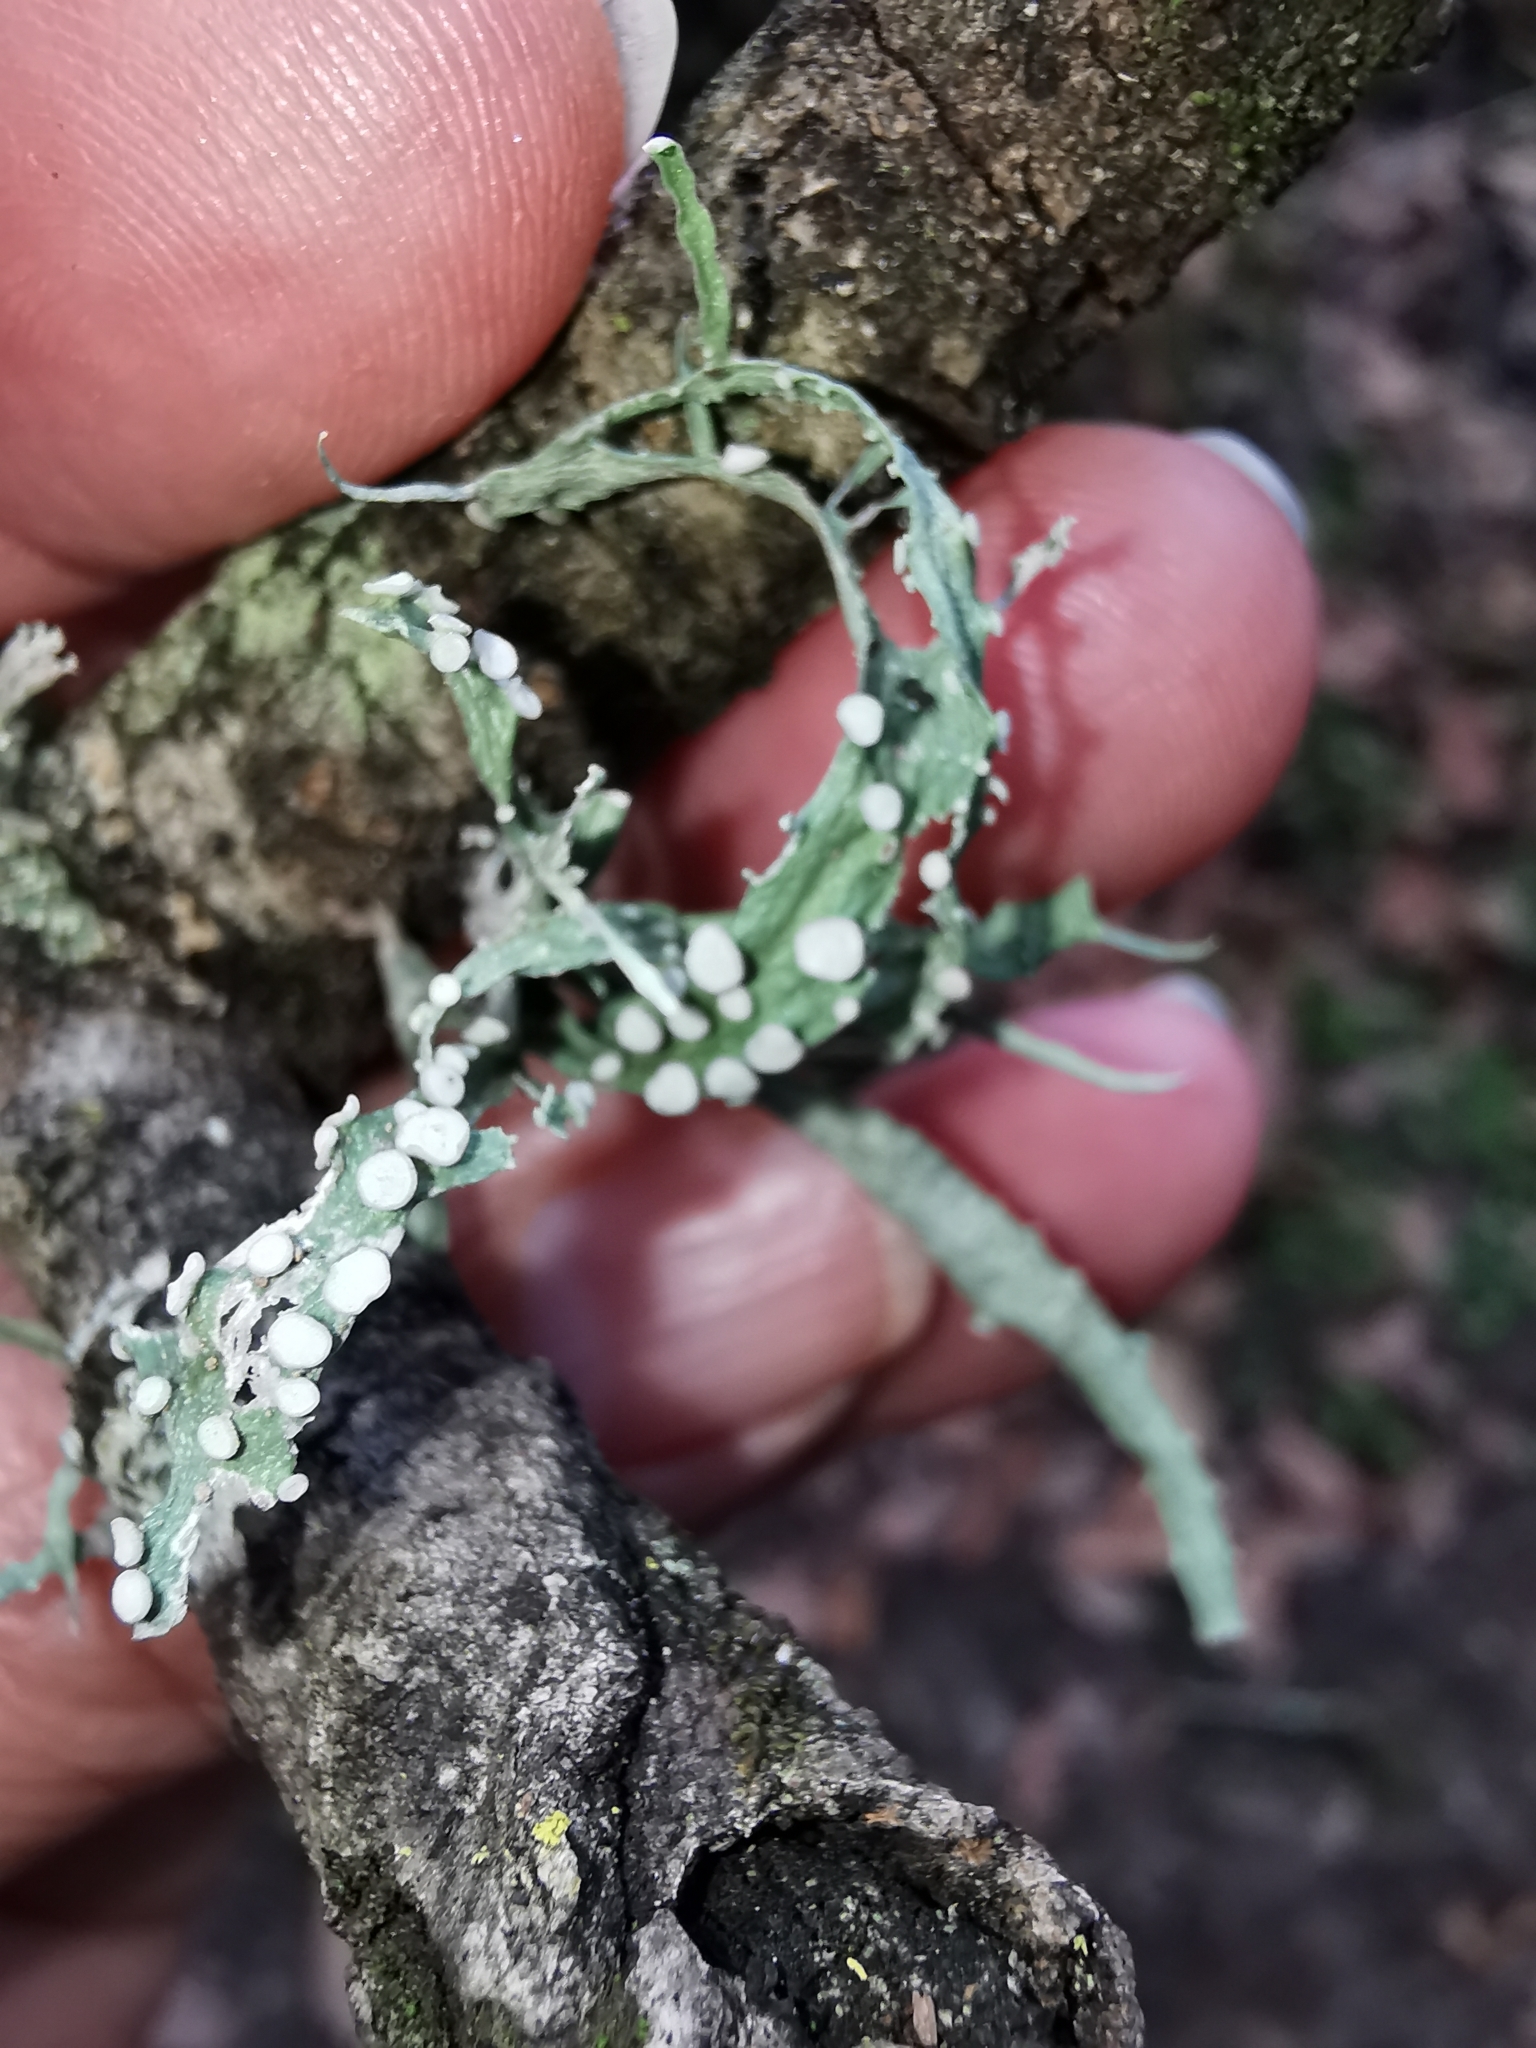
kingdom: Fungi
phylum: Ascomycota
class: Lecanoromycetes
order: Lecanorales
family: Ramalinaceae
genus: Ramalina
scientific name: Ramalina celastri
